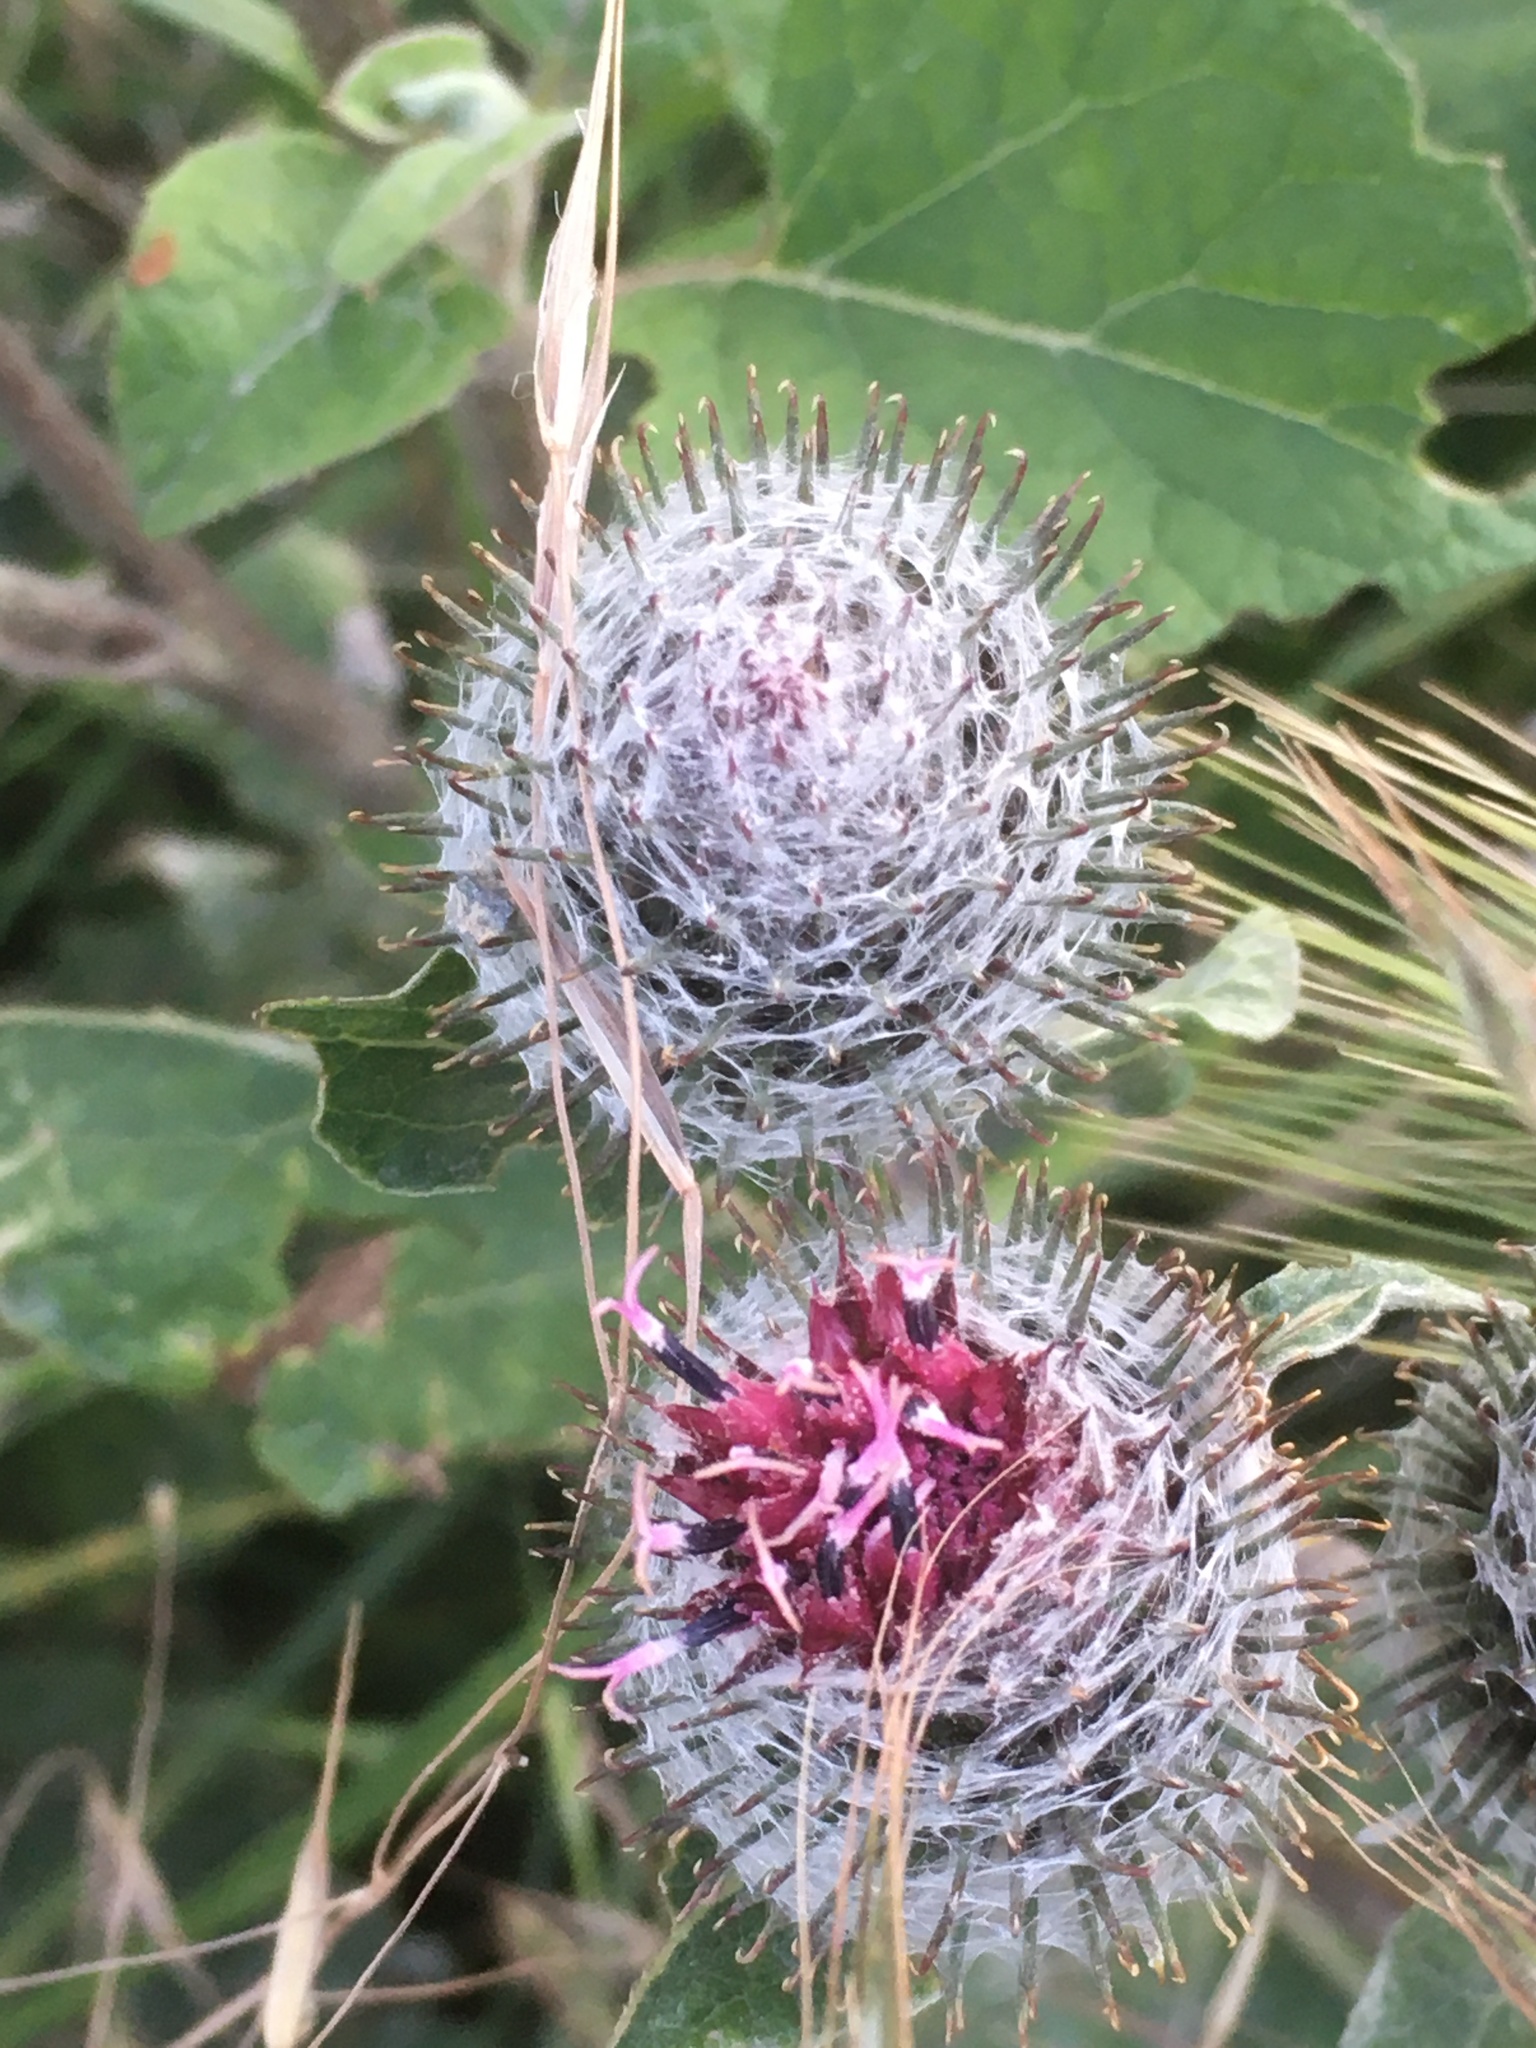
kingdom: Plantae
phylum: Tracheophyta
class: Magnoliopsida
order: Asterales
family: Asteraceae
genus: Arctium
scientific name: Arctium tomentosum
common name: Woolly burdock
